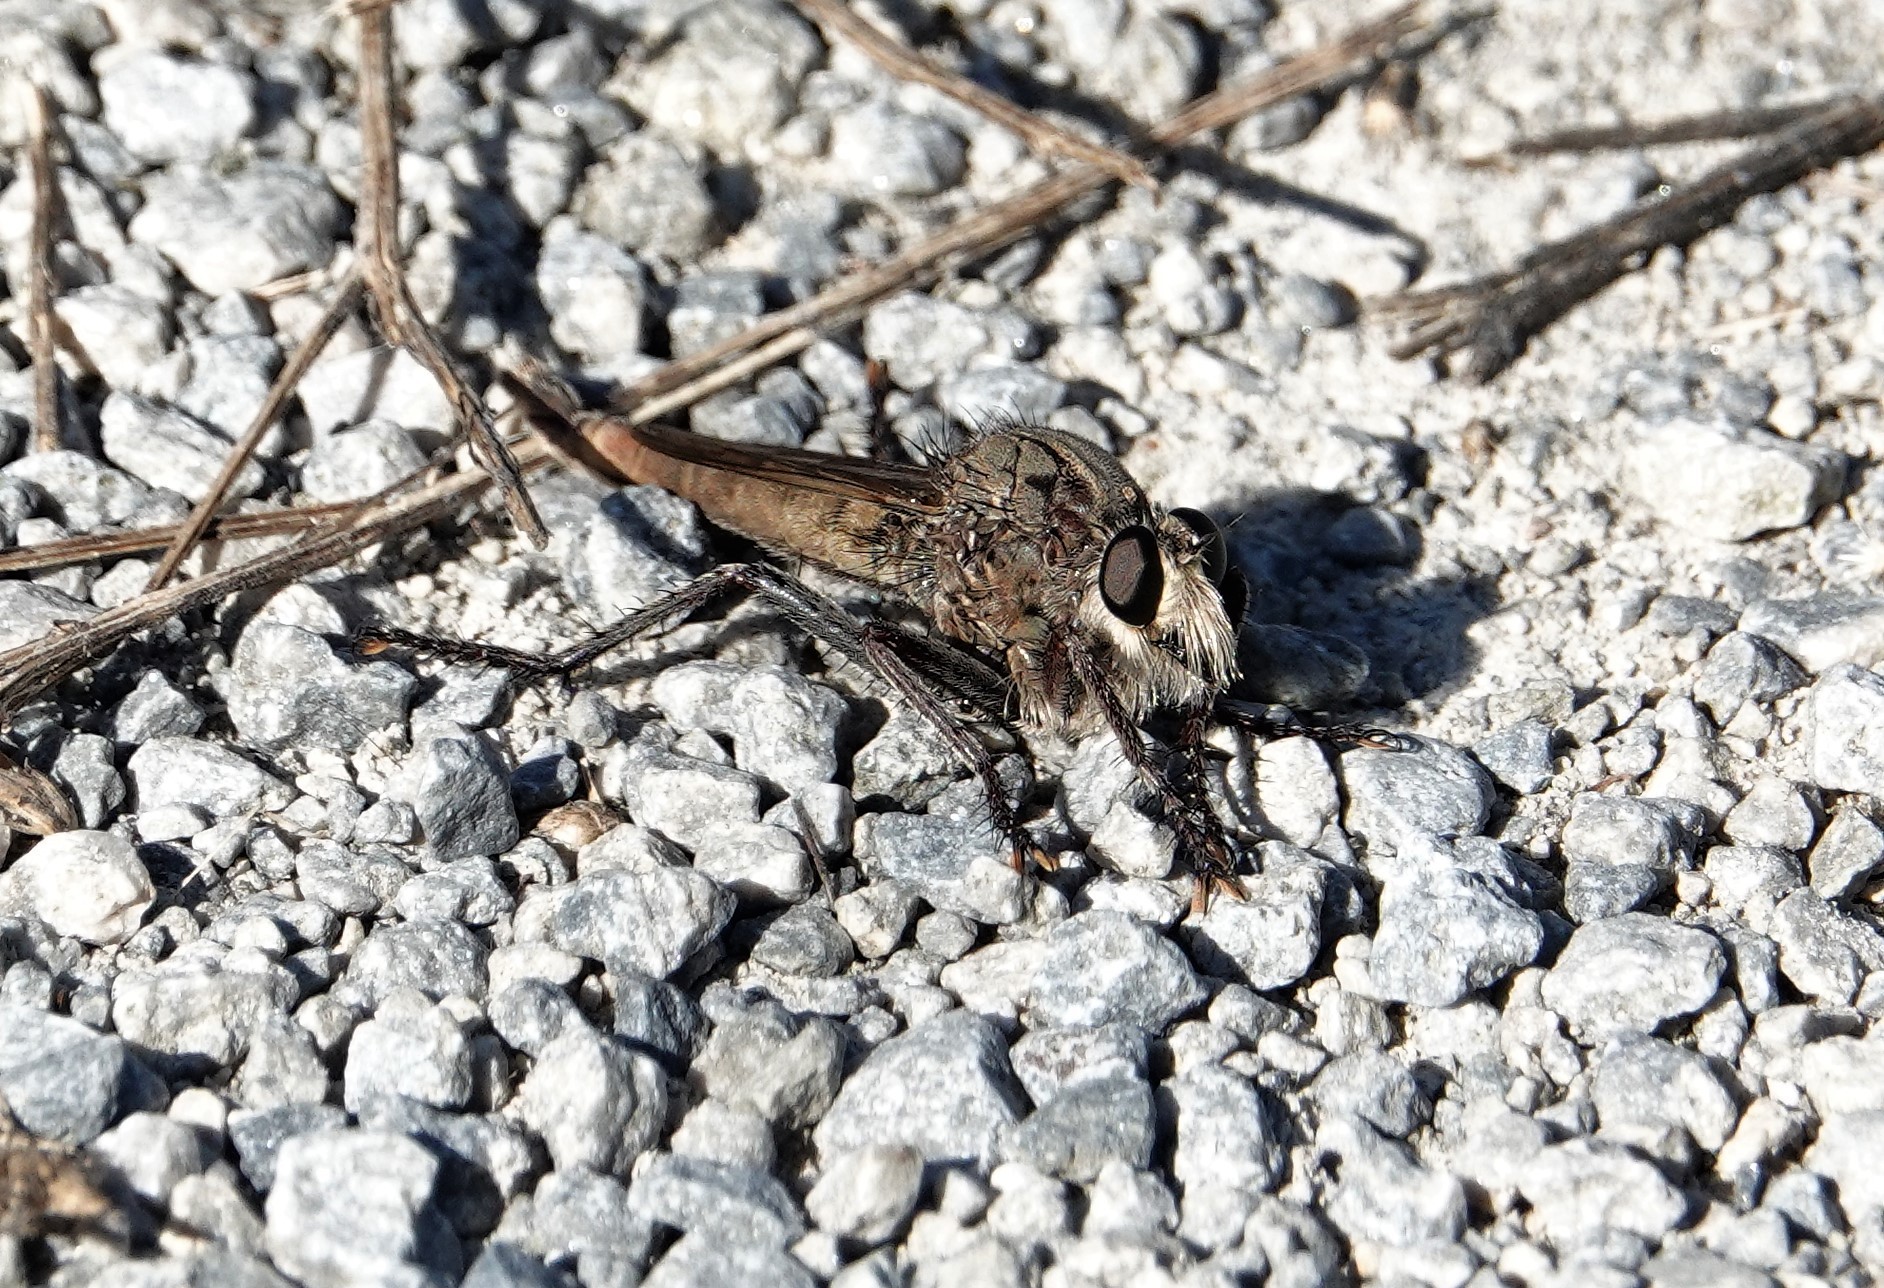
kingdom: Animalia
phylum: Arthropoda
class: Insecta
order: Diptera
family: Asilidae
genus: Proctacanthus
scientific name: Proctacanthus milbertii
